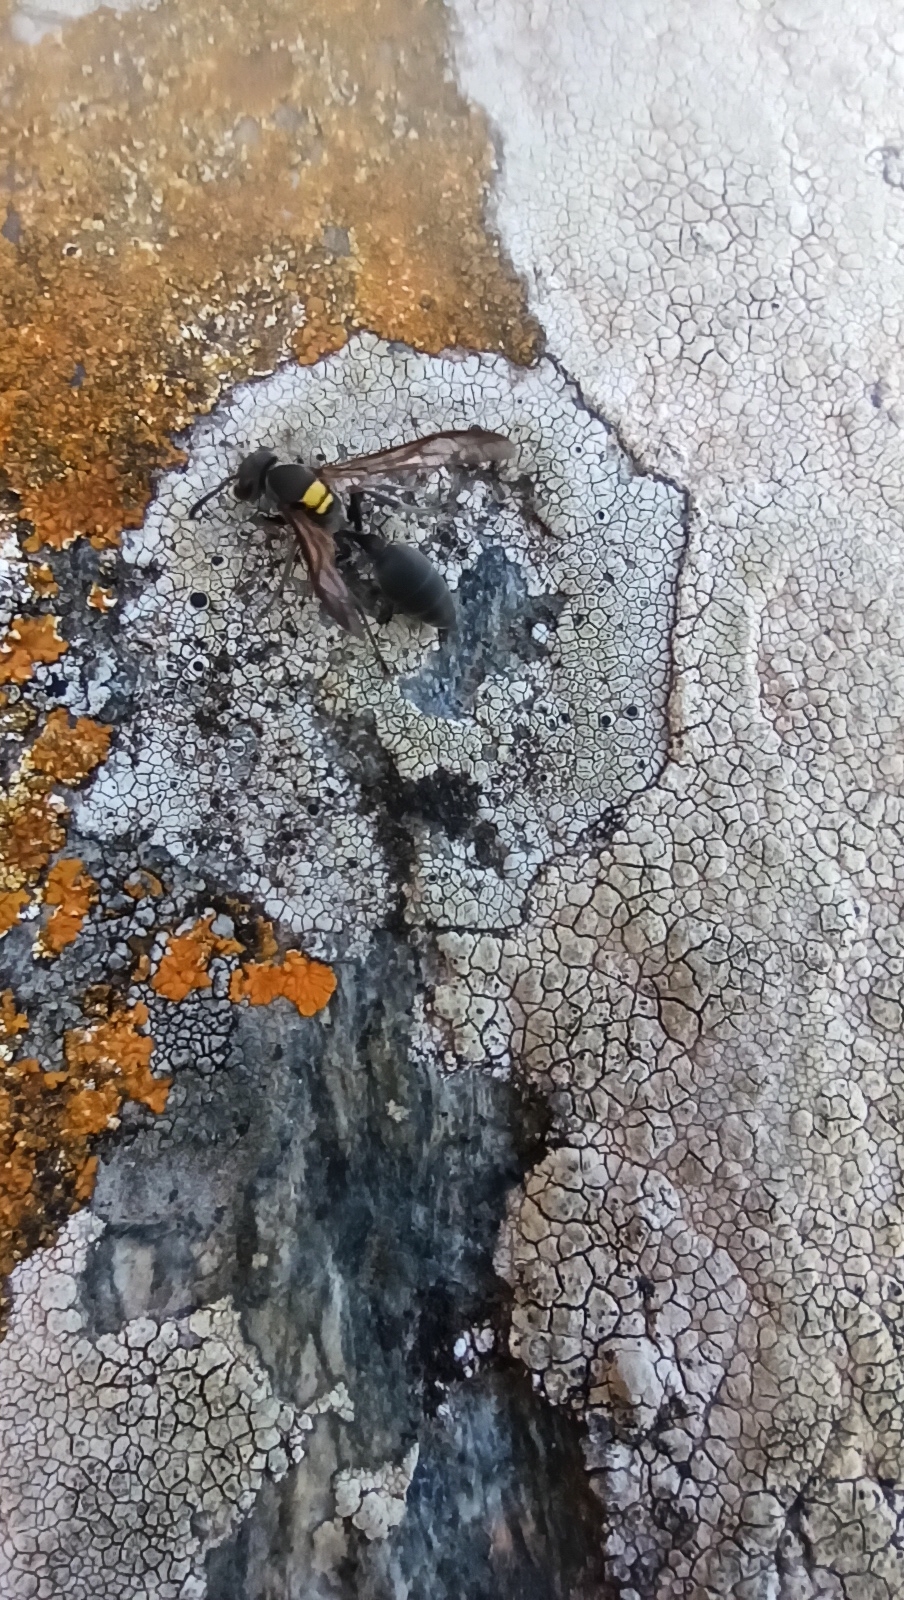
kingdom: Animalia
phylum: Arthropoda
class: Insecta
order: Hymenoptera
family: Eumenidae
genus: Polybia
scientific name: Polybia scutellaris
